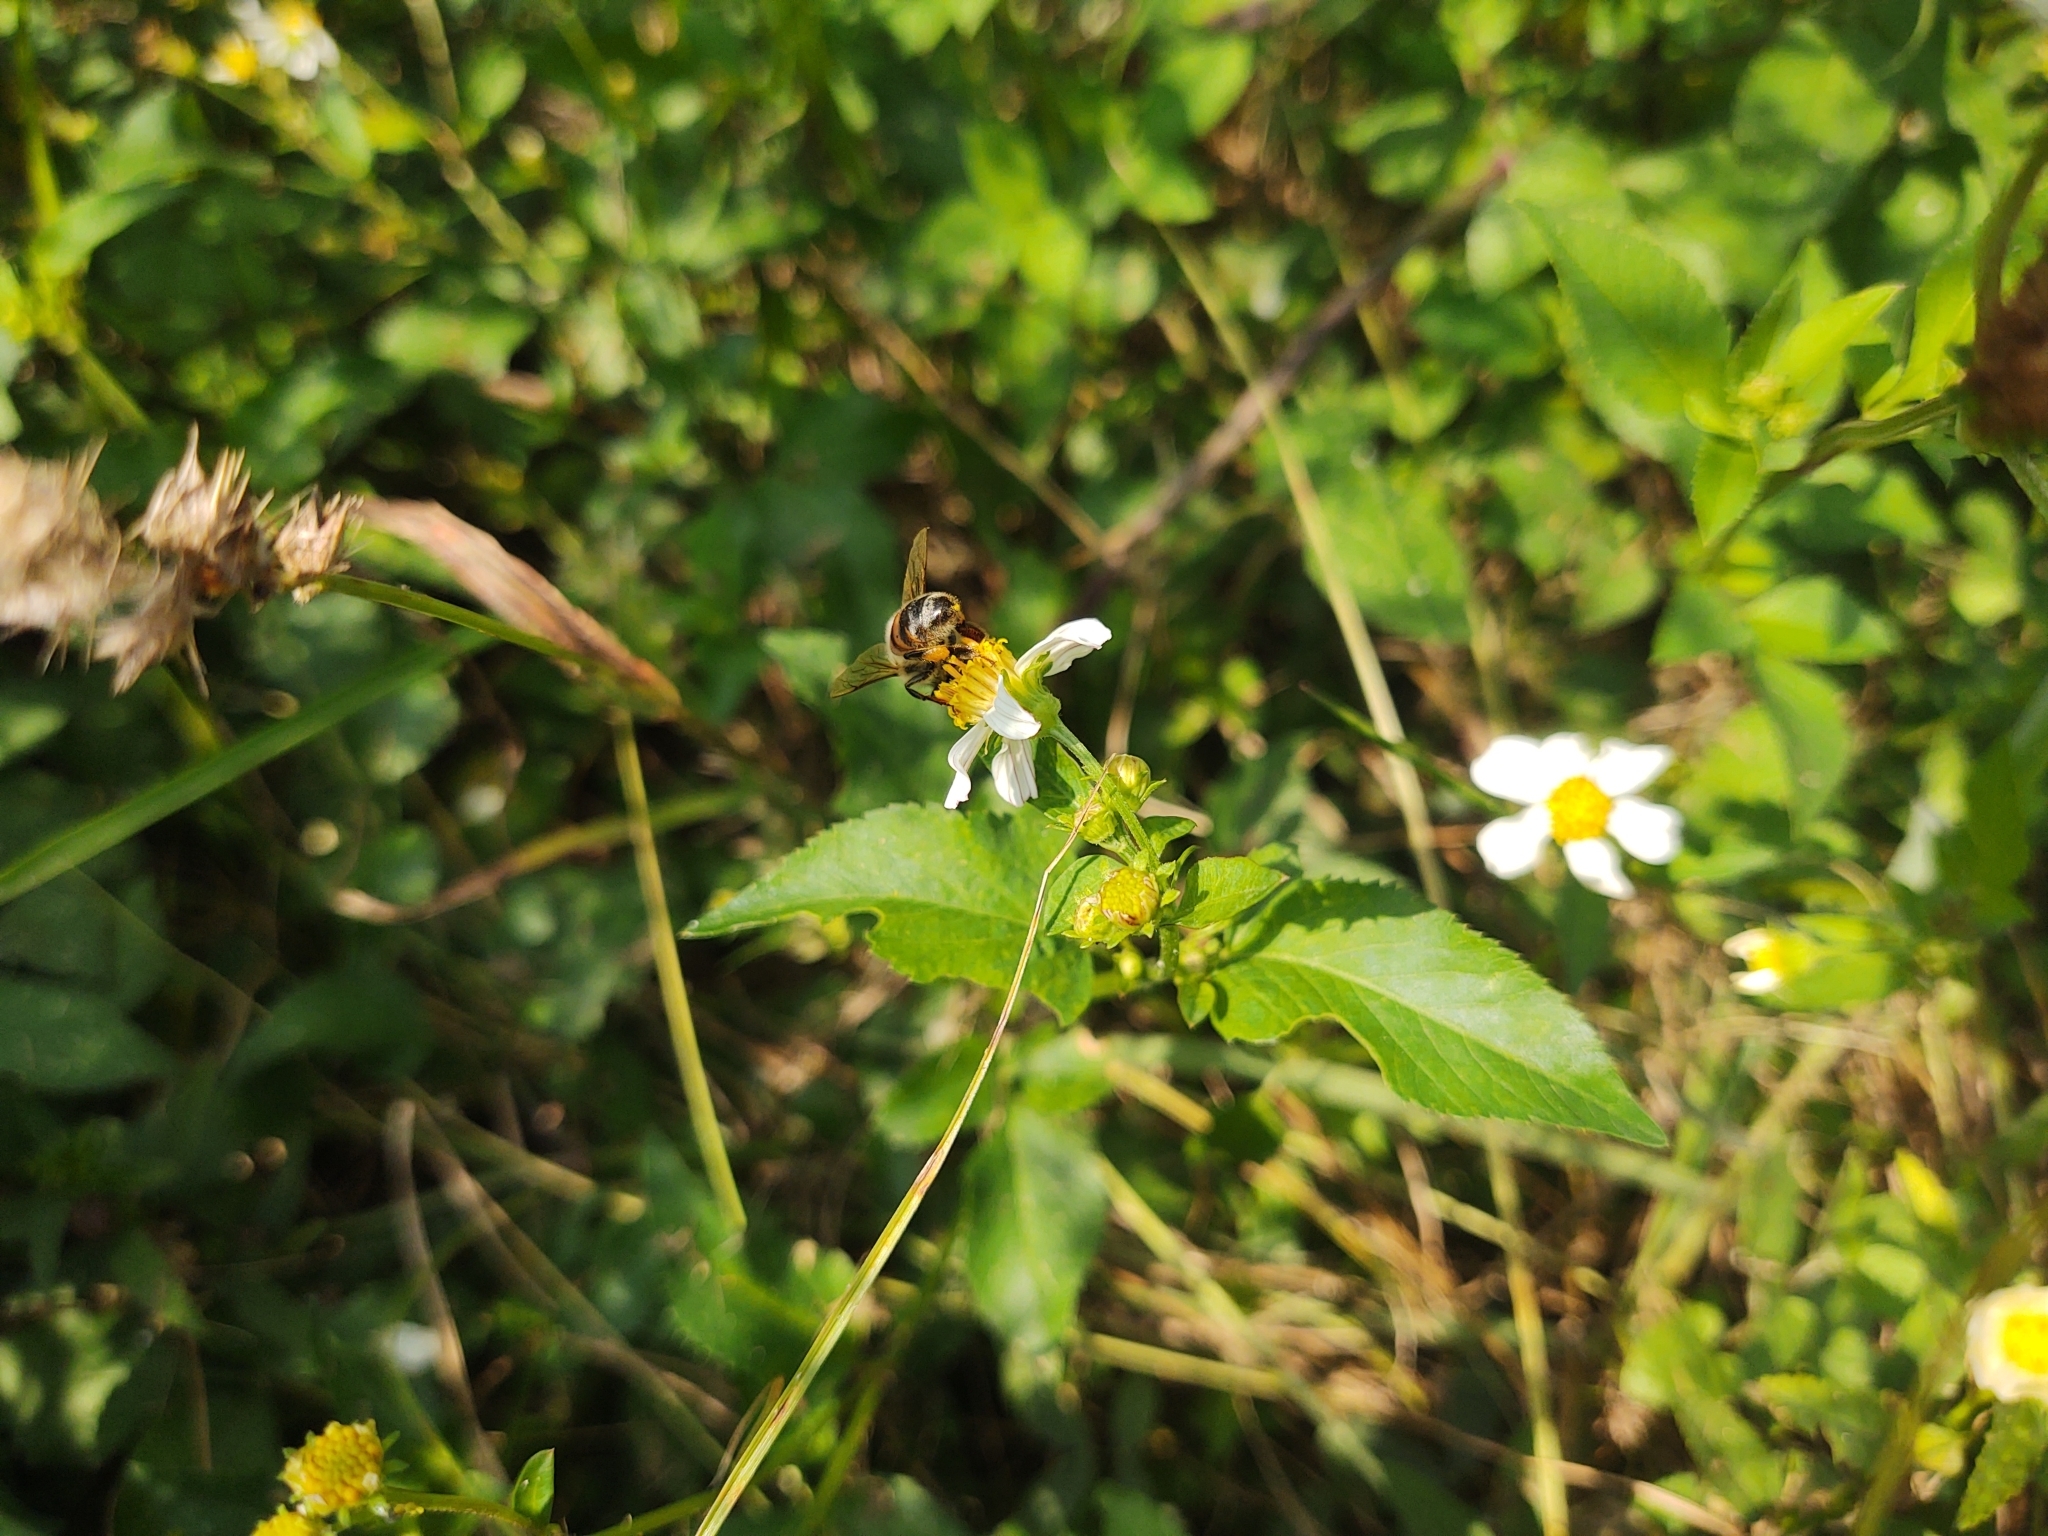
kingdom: Animalia
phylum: Arthropoda
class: Insecta
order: Hymenoptera
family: Apidae
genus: Apis
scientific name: Apis mellifera
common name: Honey bee
